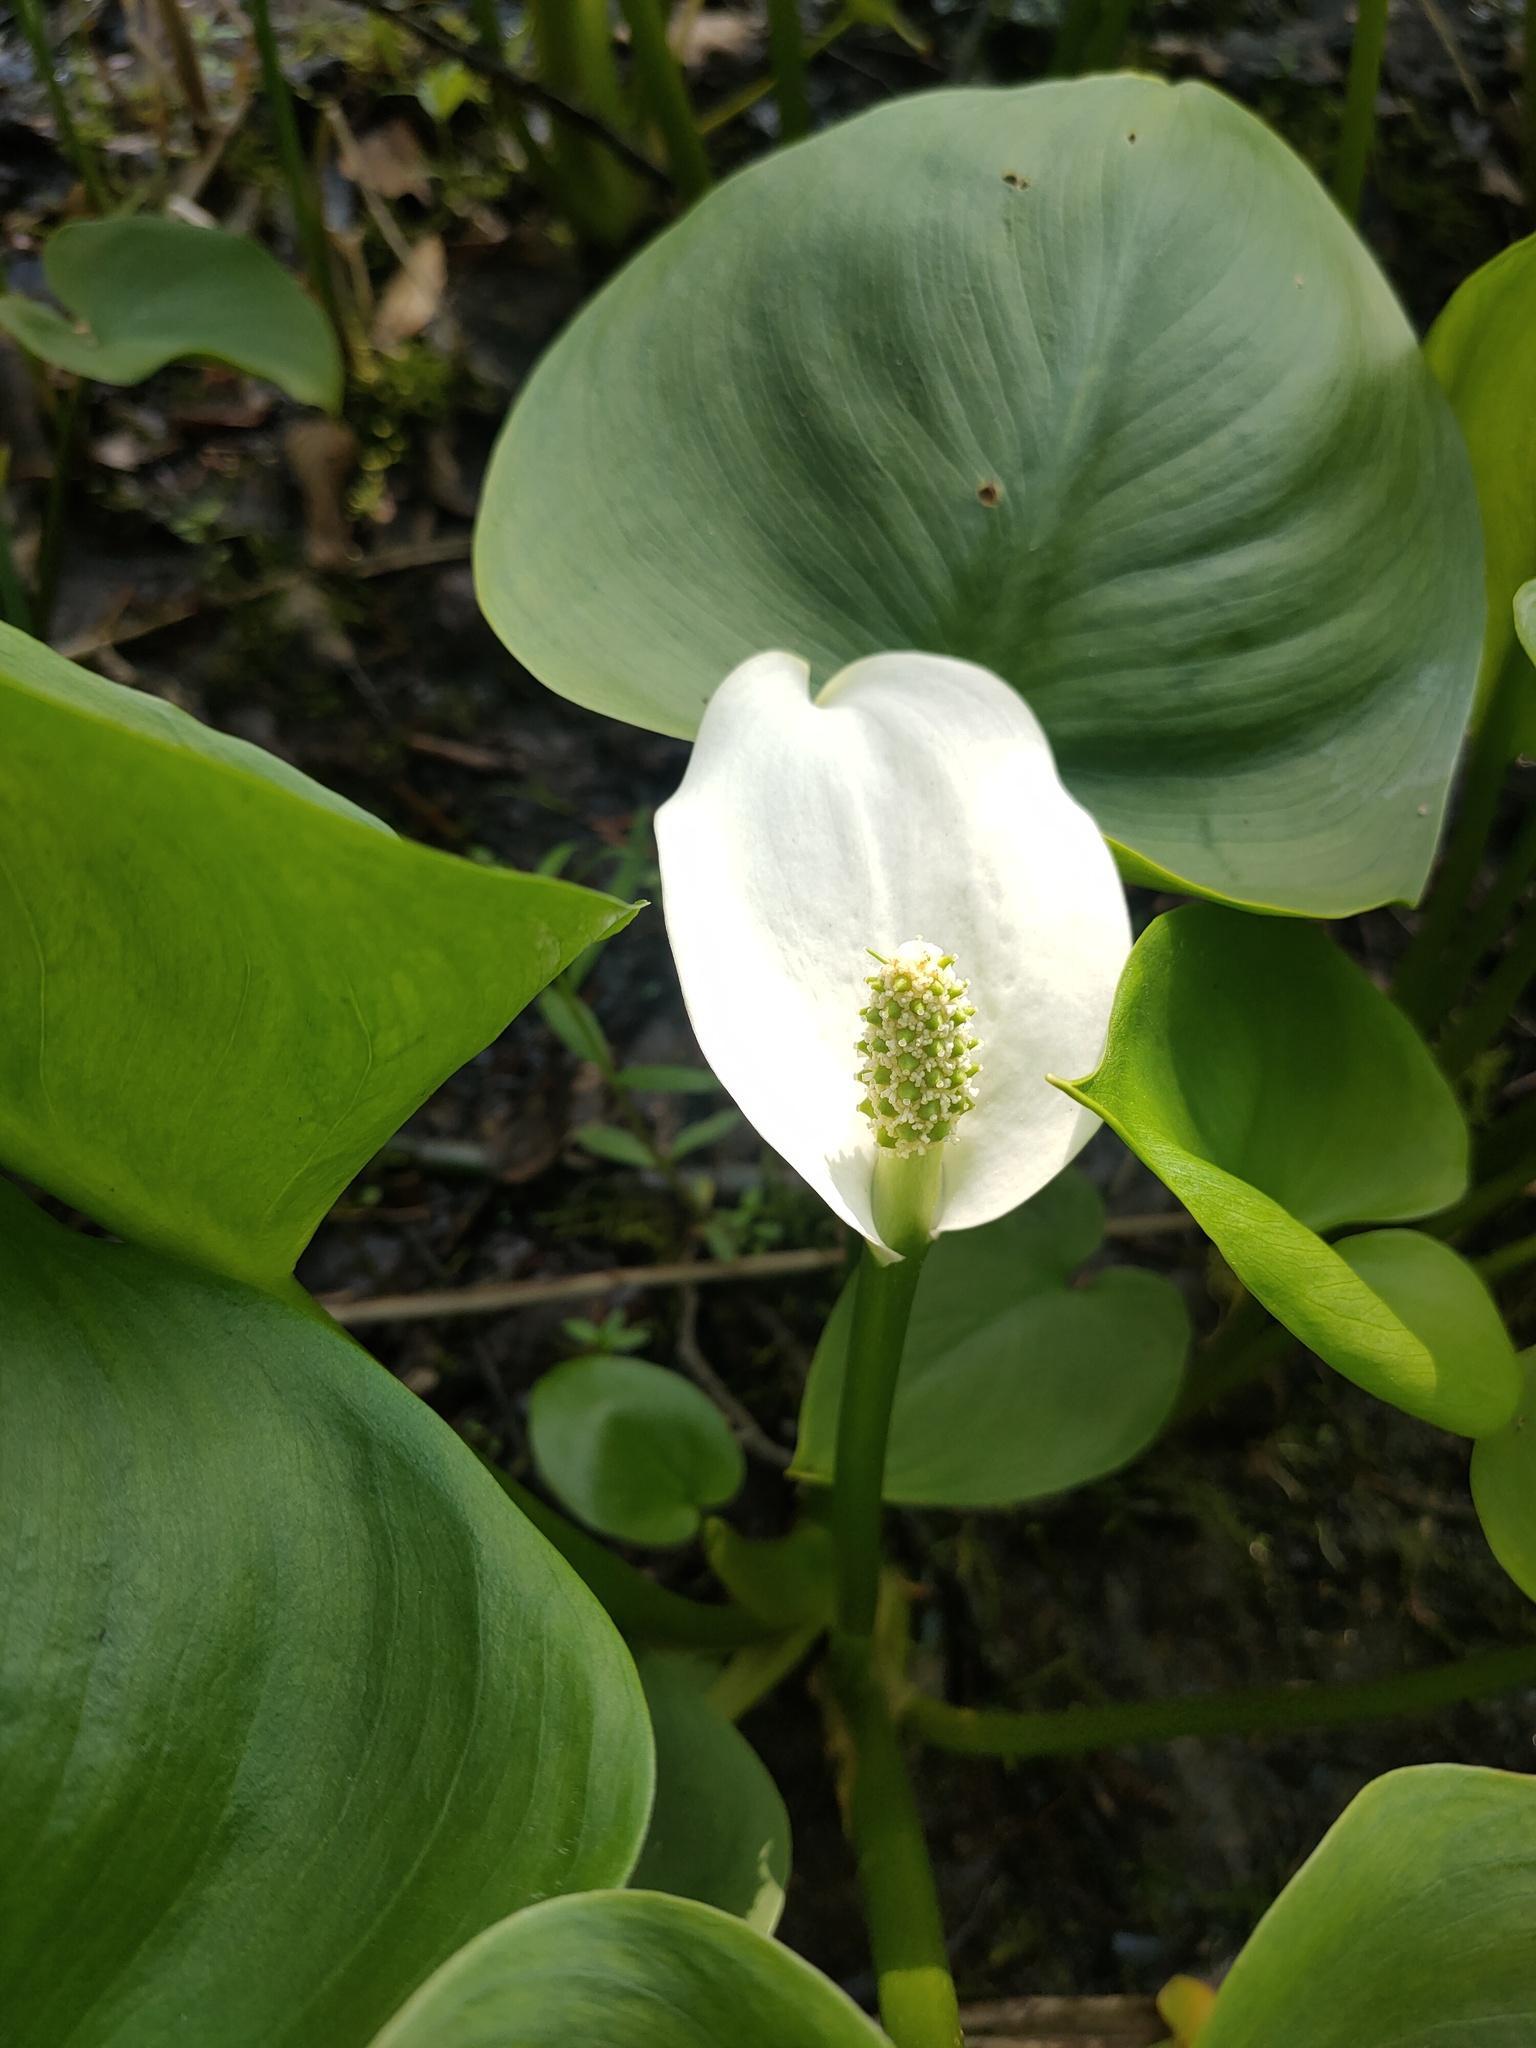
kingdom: Plantae
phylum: Tracheophyta
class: Liliopsida
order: Alismatales
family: Araceae
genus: Calla
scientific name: Calla palustris
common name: Bog arum
